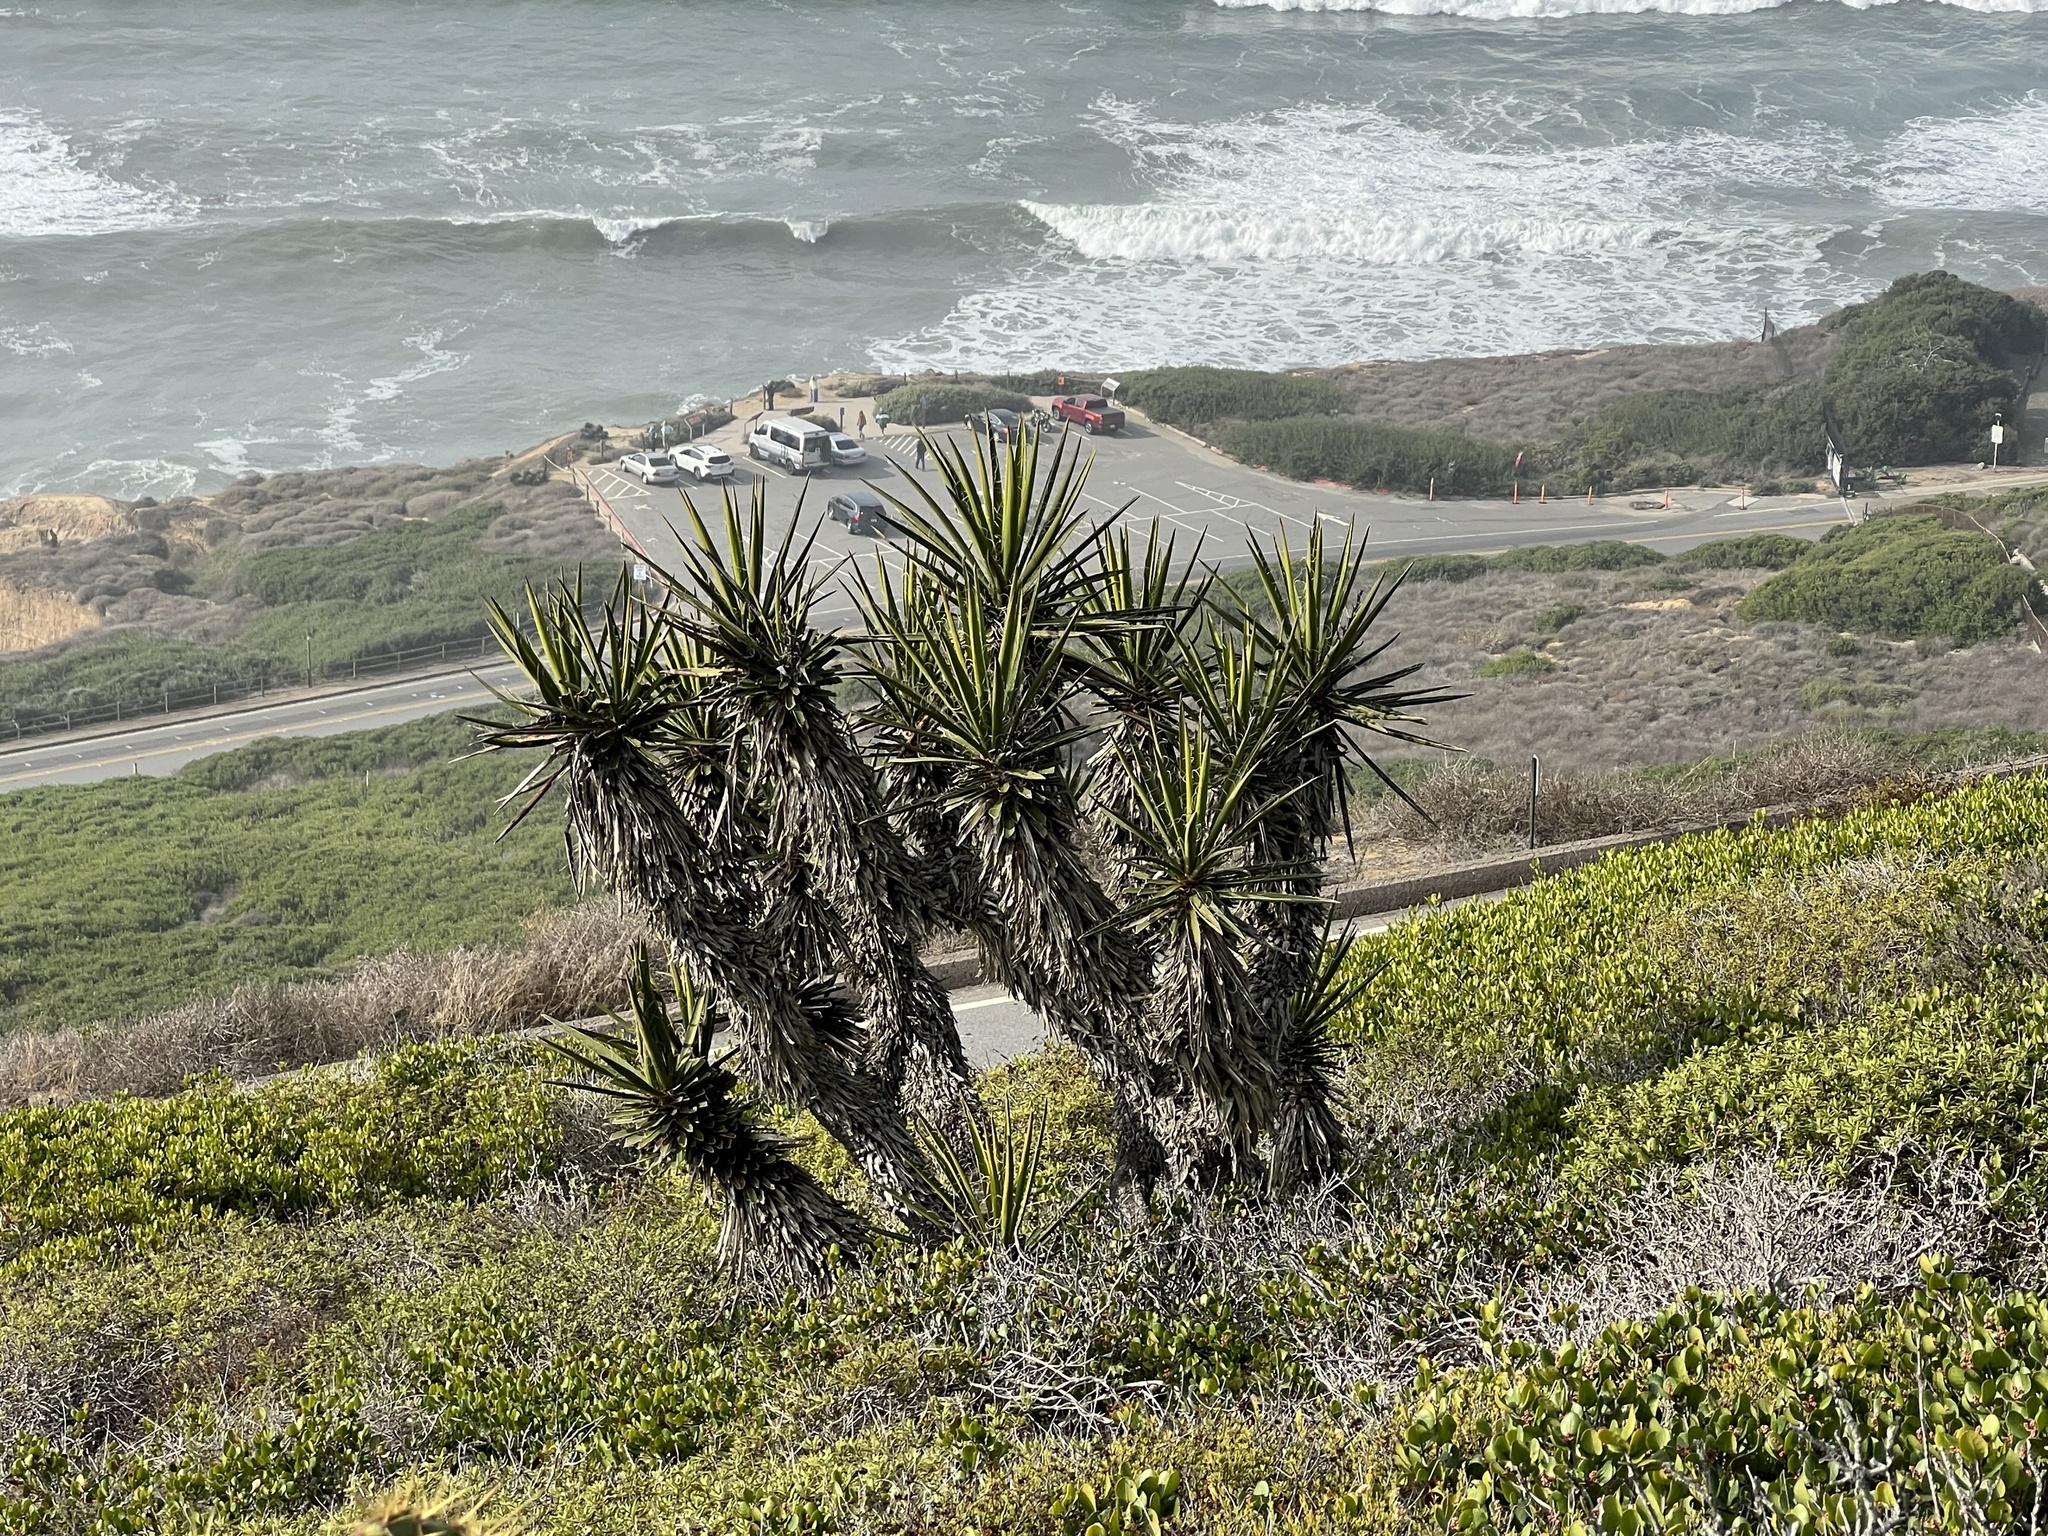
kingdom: Plantae
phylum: Tracheophyta
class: Liliopsida
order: Asparagales
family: Asparagaceae
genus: Yucca
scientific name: Yucca schidigera
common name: Mojave yucca
